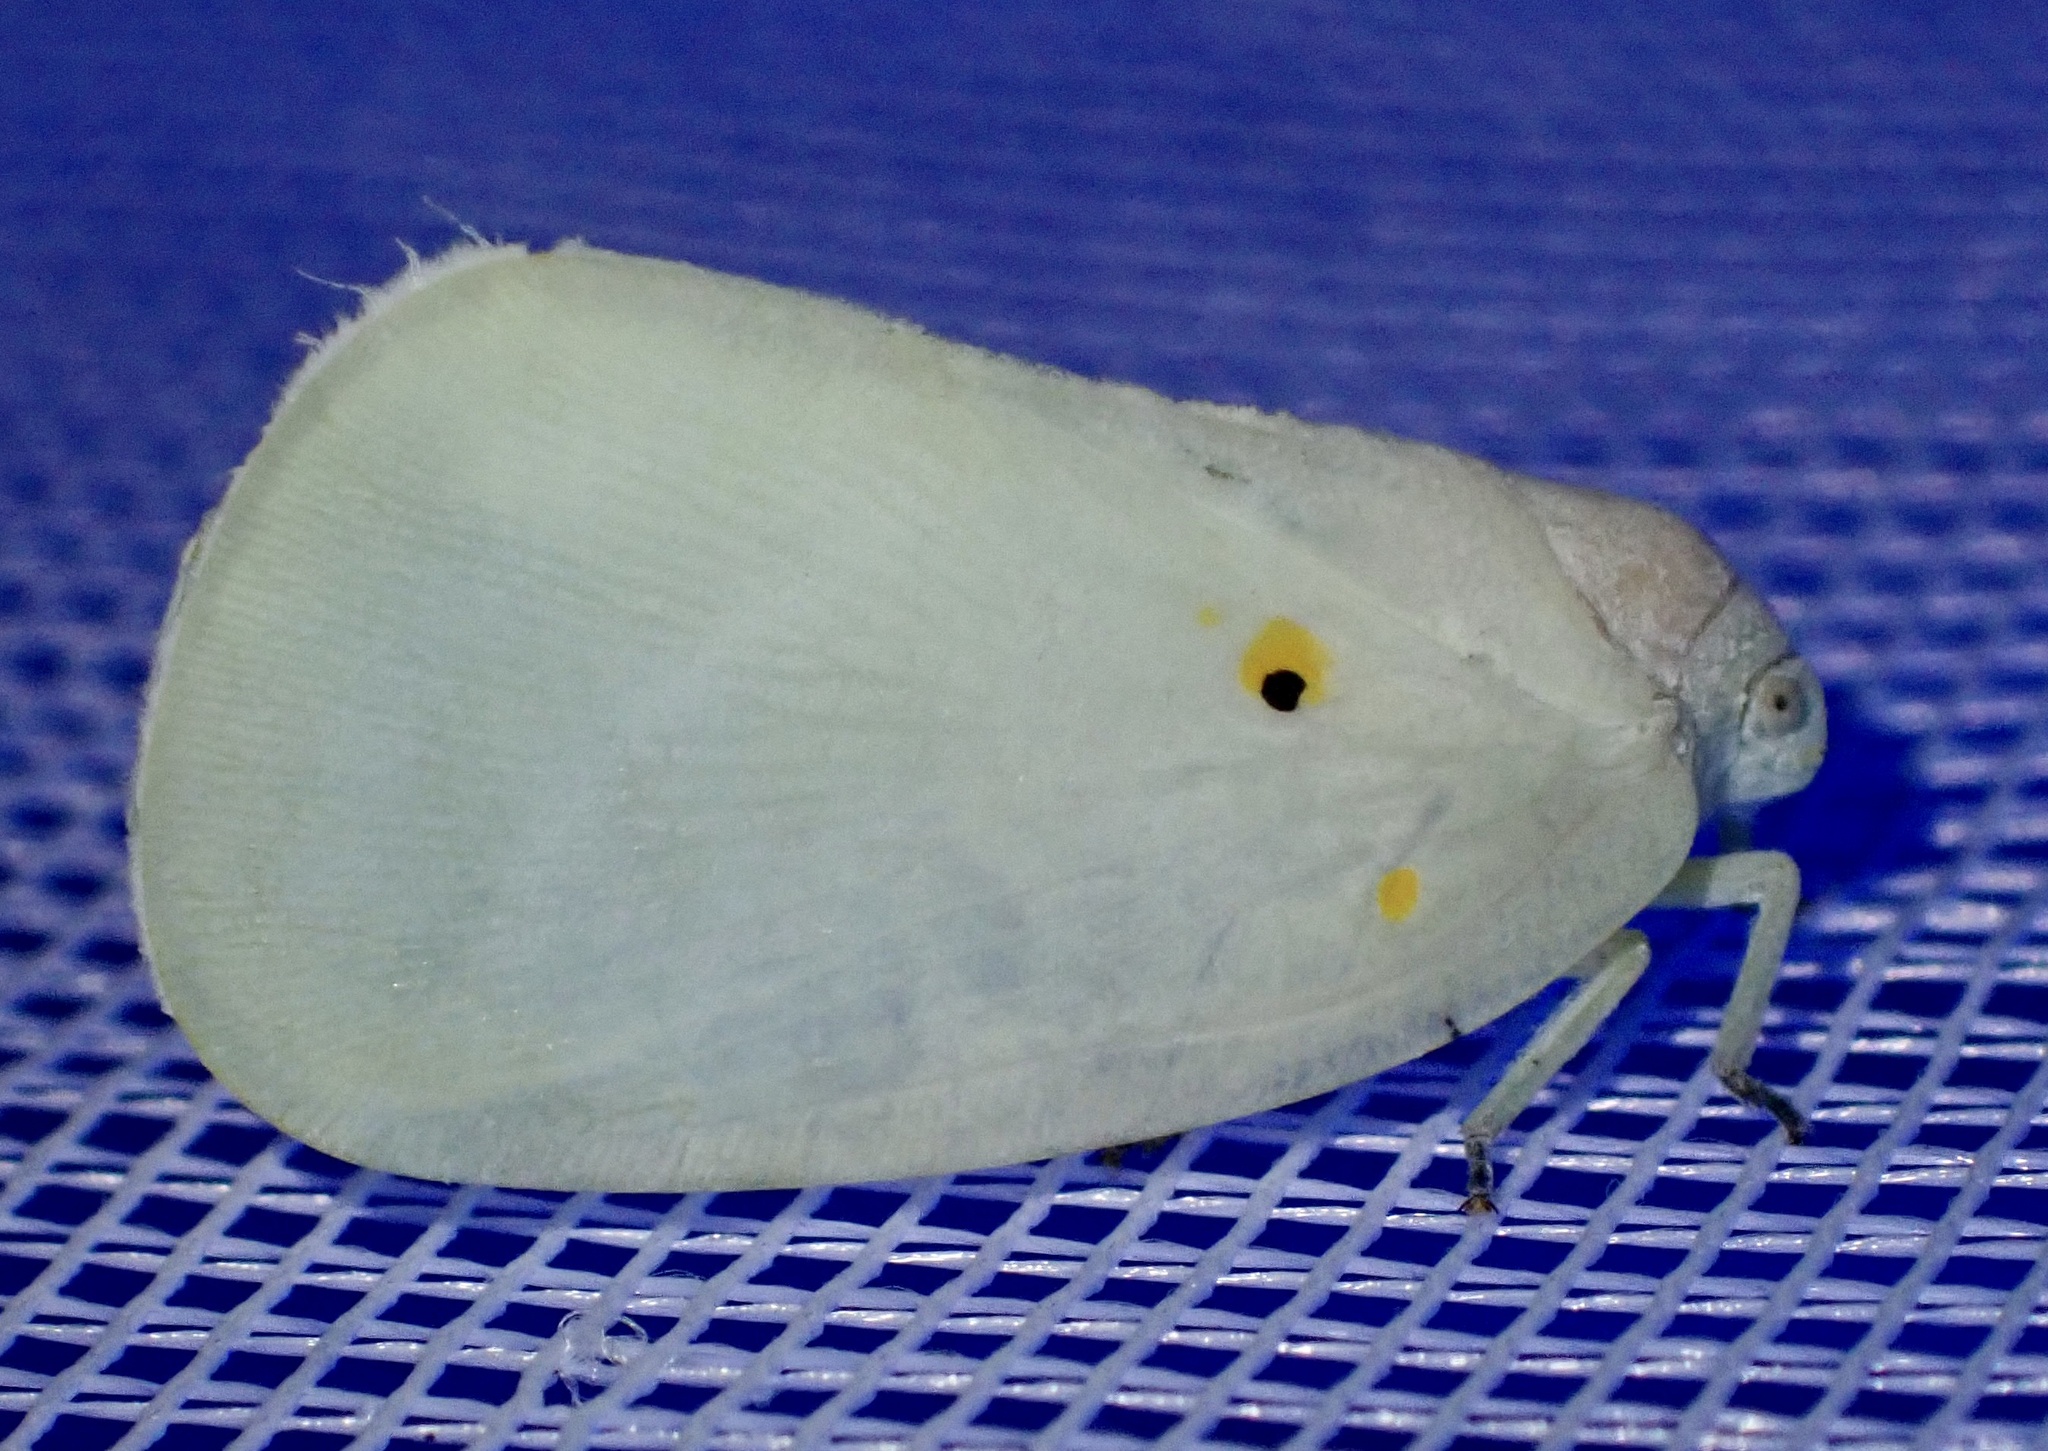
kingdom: Animalia
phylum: Arthropoda
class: Insecta
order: Hemiptera
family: Flatidae
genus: Poeciloflata
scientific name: Poeciloflata
